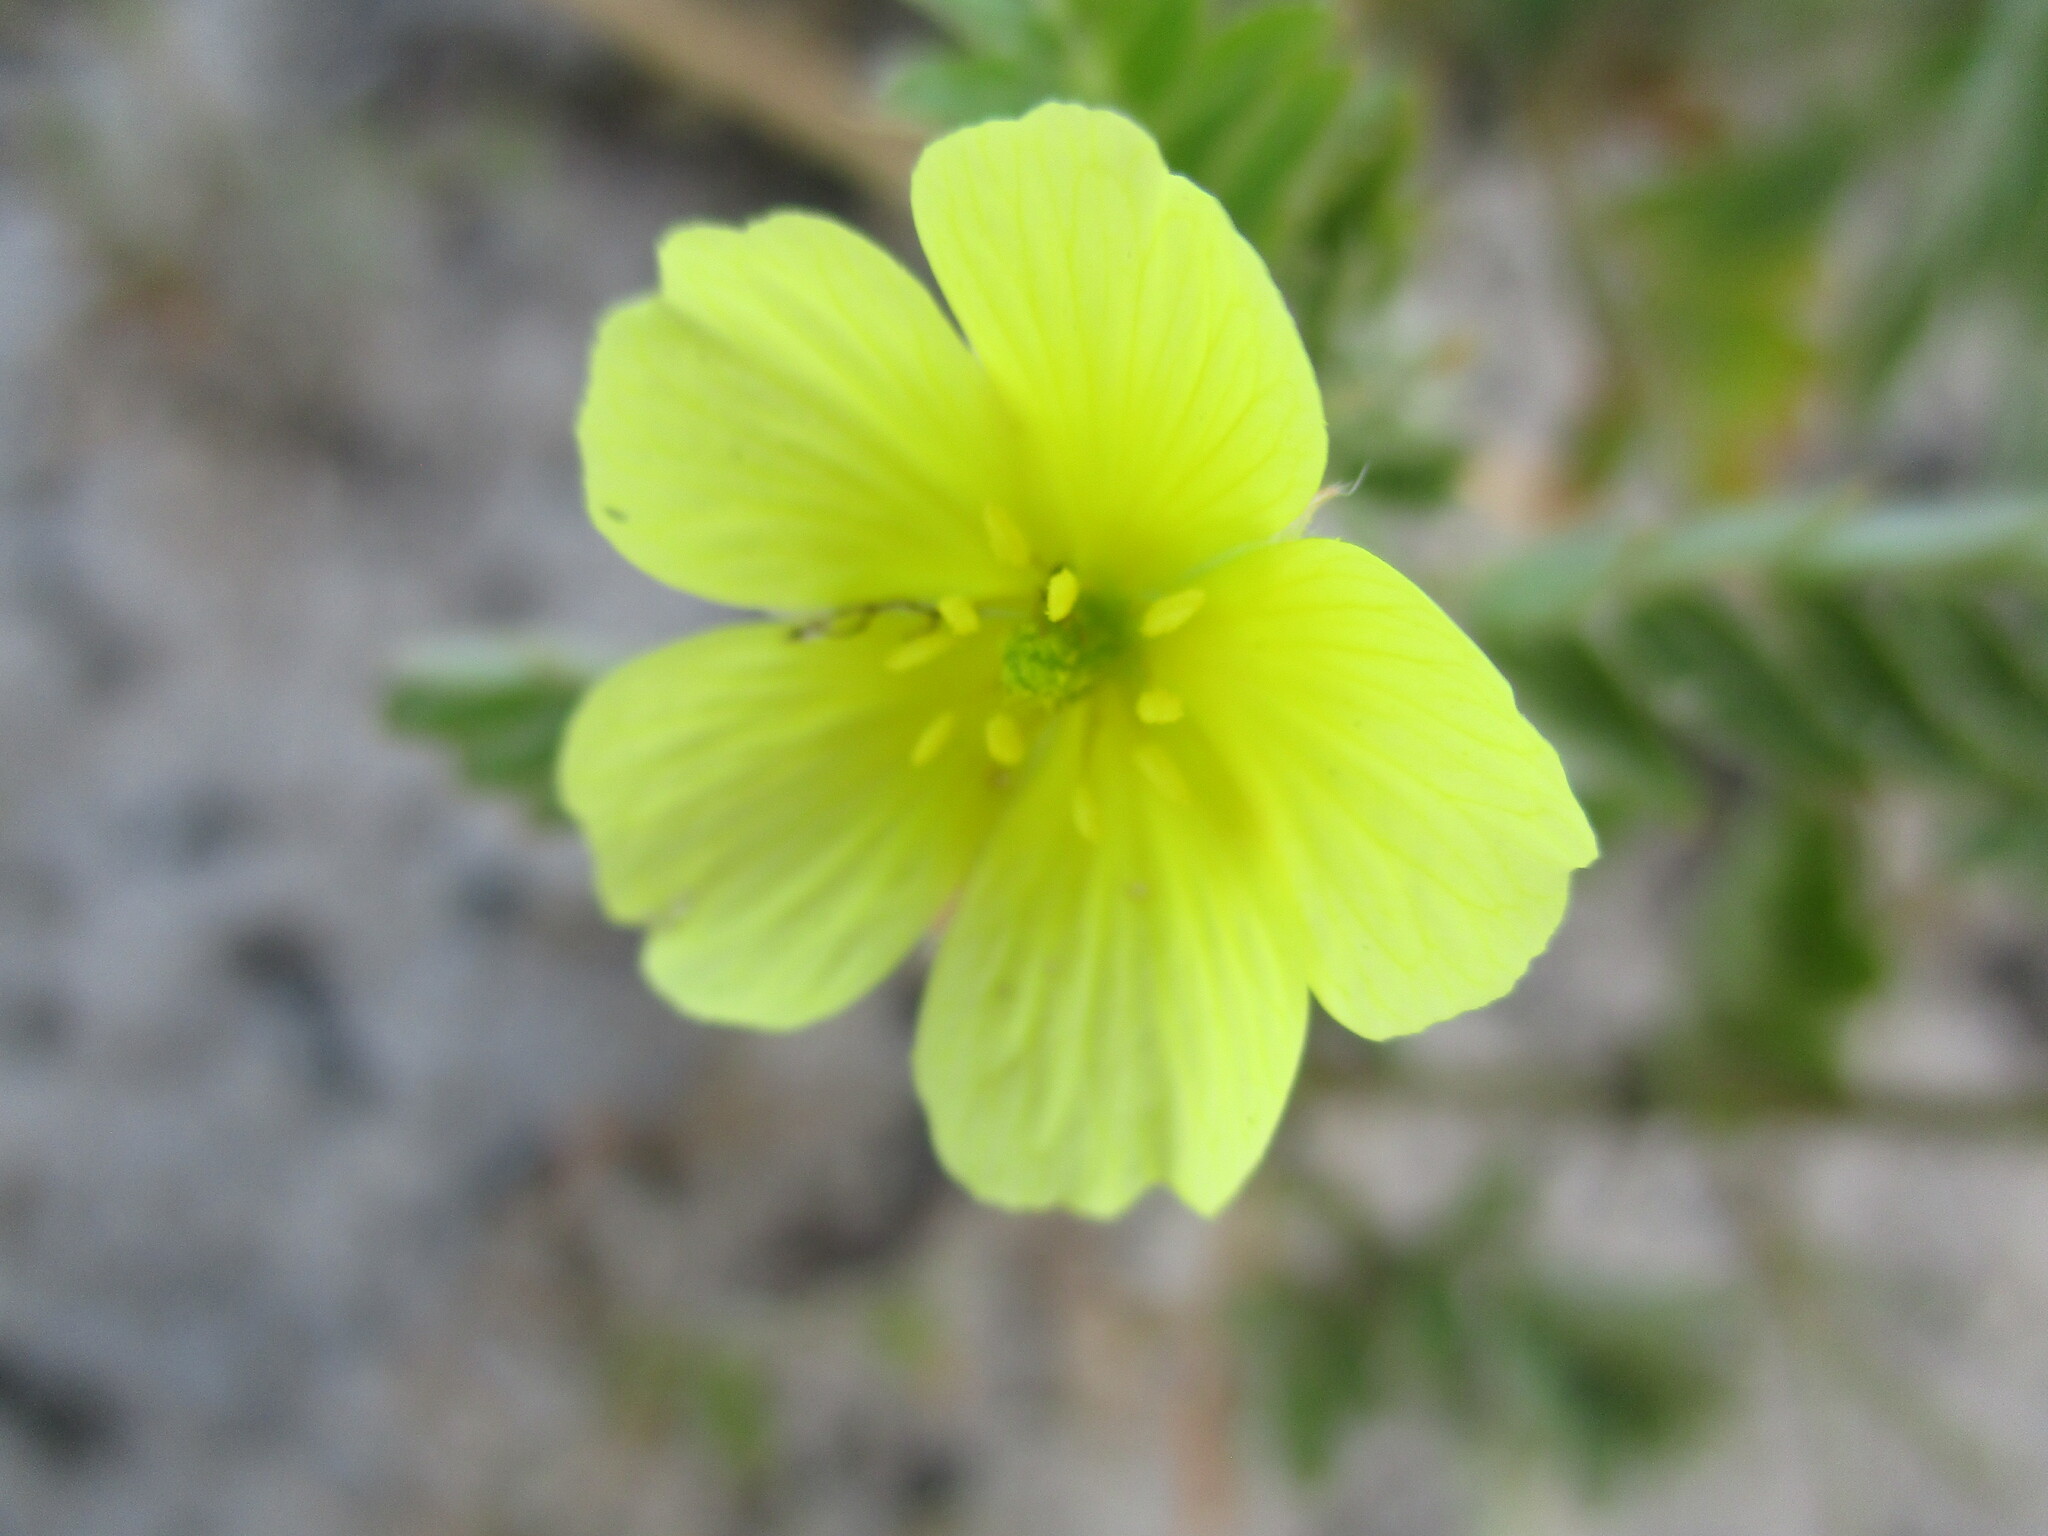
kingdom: Plantae
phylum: Tracheophyta
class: Magnoliopsida
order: Zygophyllales
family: Zygophyllaceae
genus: Tribulus
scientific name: Tribulus terrestris
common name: Puncturevine
